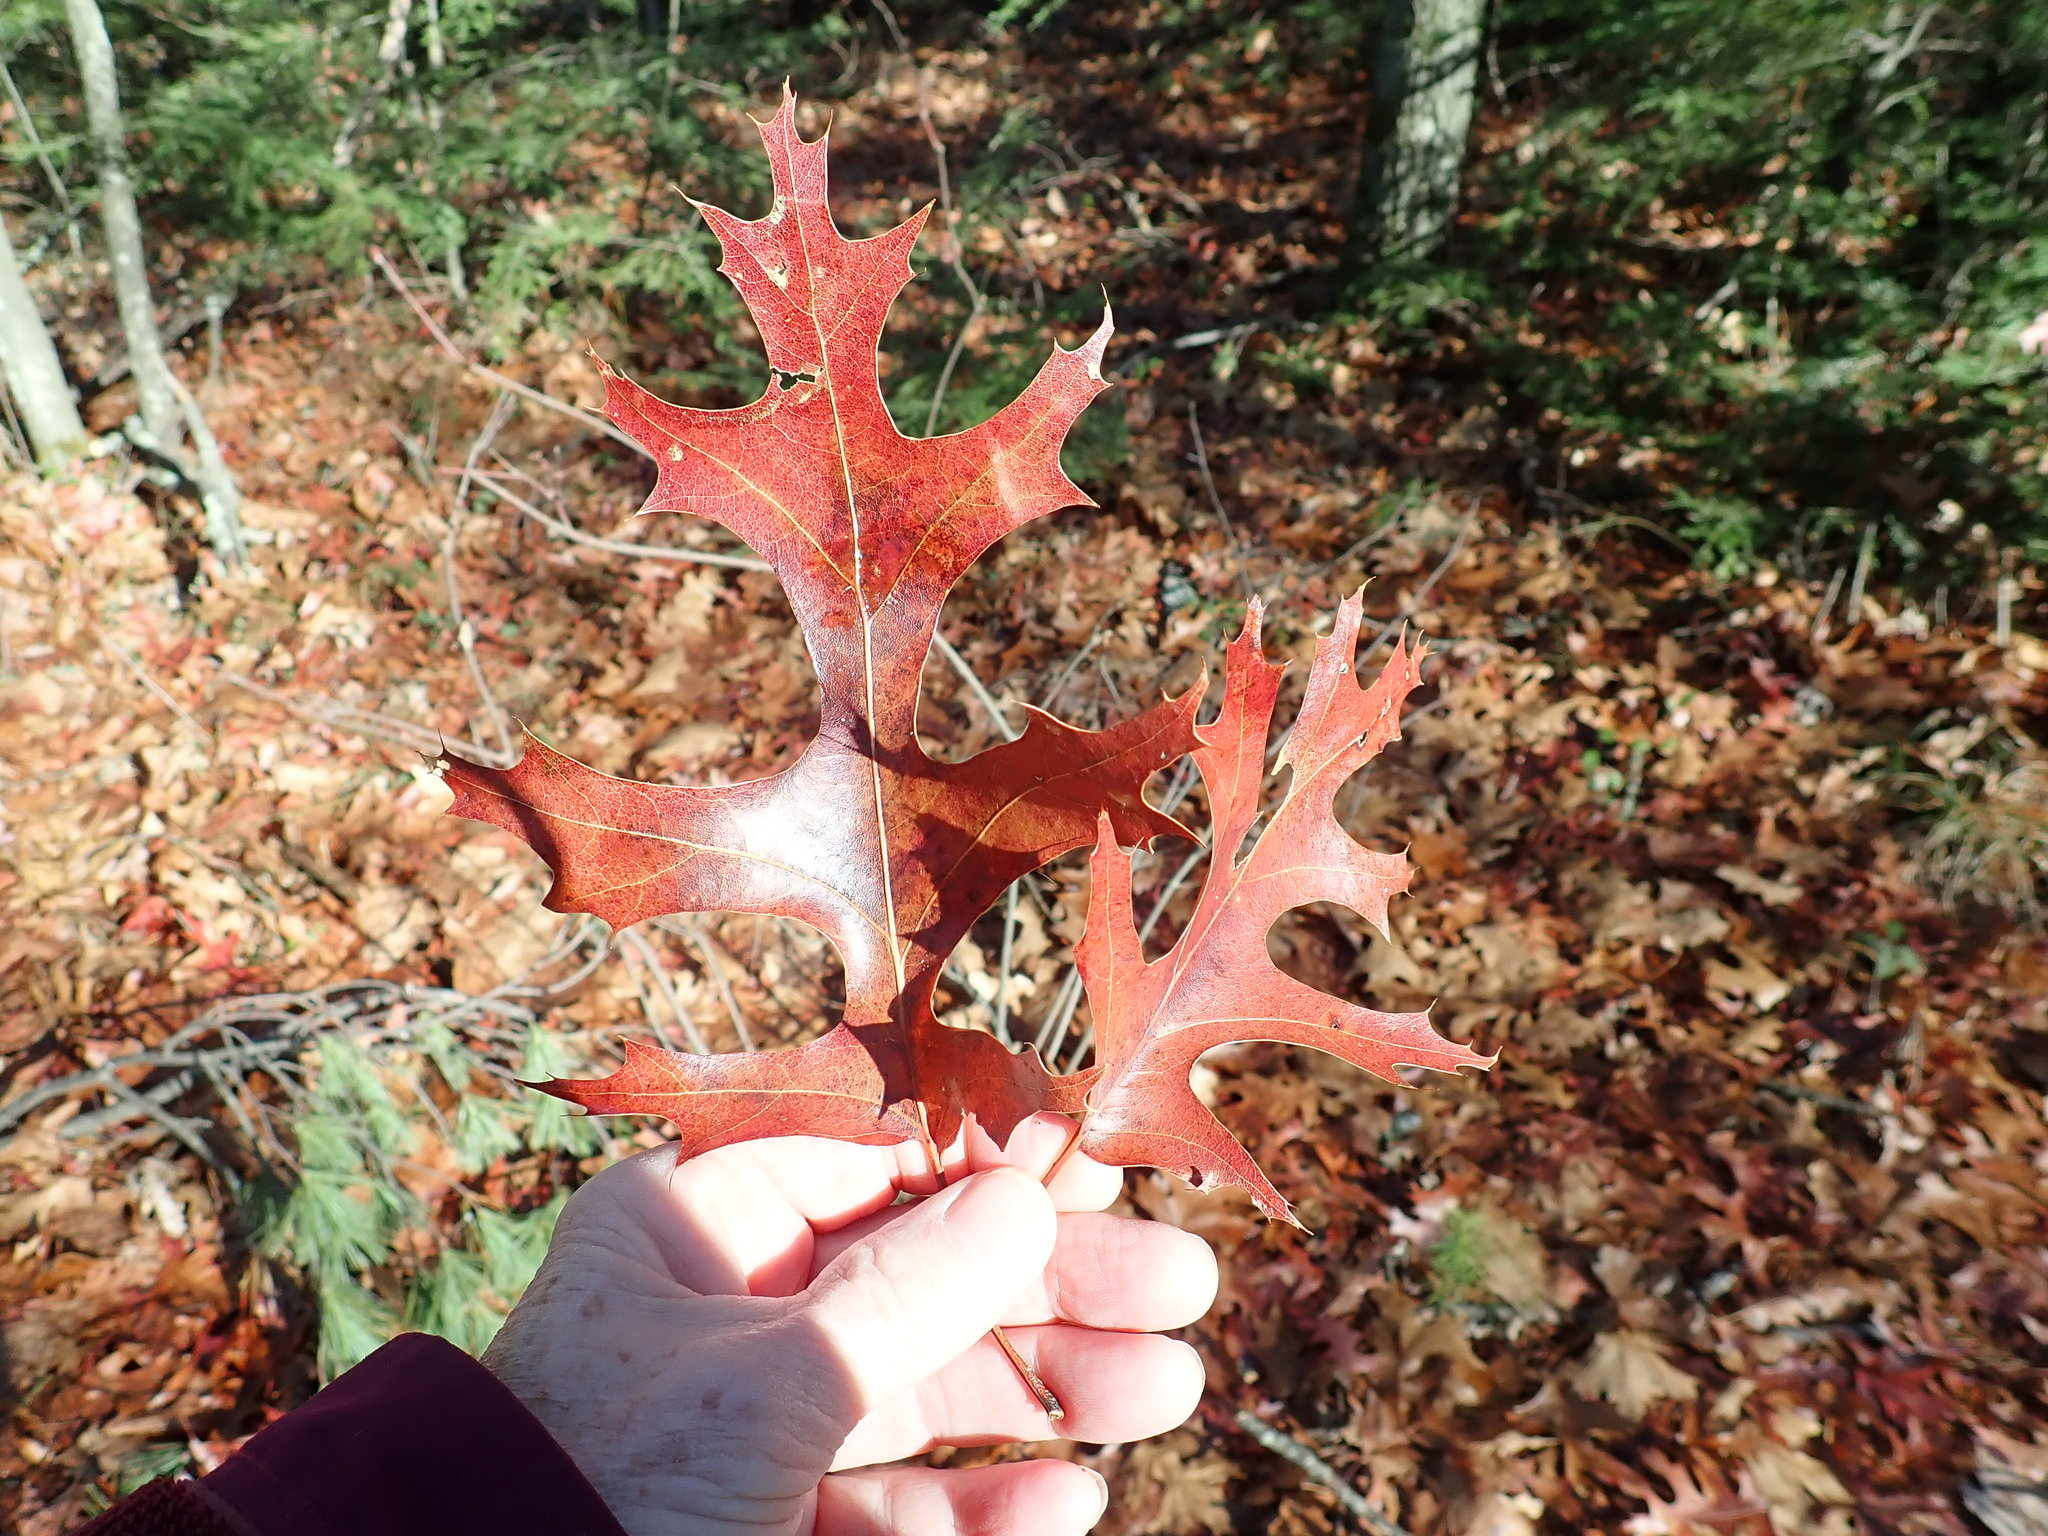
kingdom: Plantae
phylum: Tracheophyta
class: Magnoliopsida
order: Fagales
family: Fagaceae
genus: Quercus
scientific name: Quercus coccinea
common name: Scarlet oak
